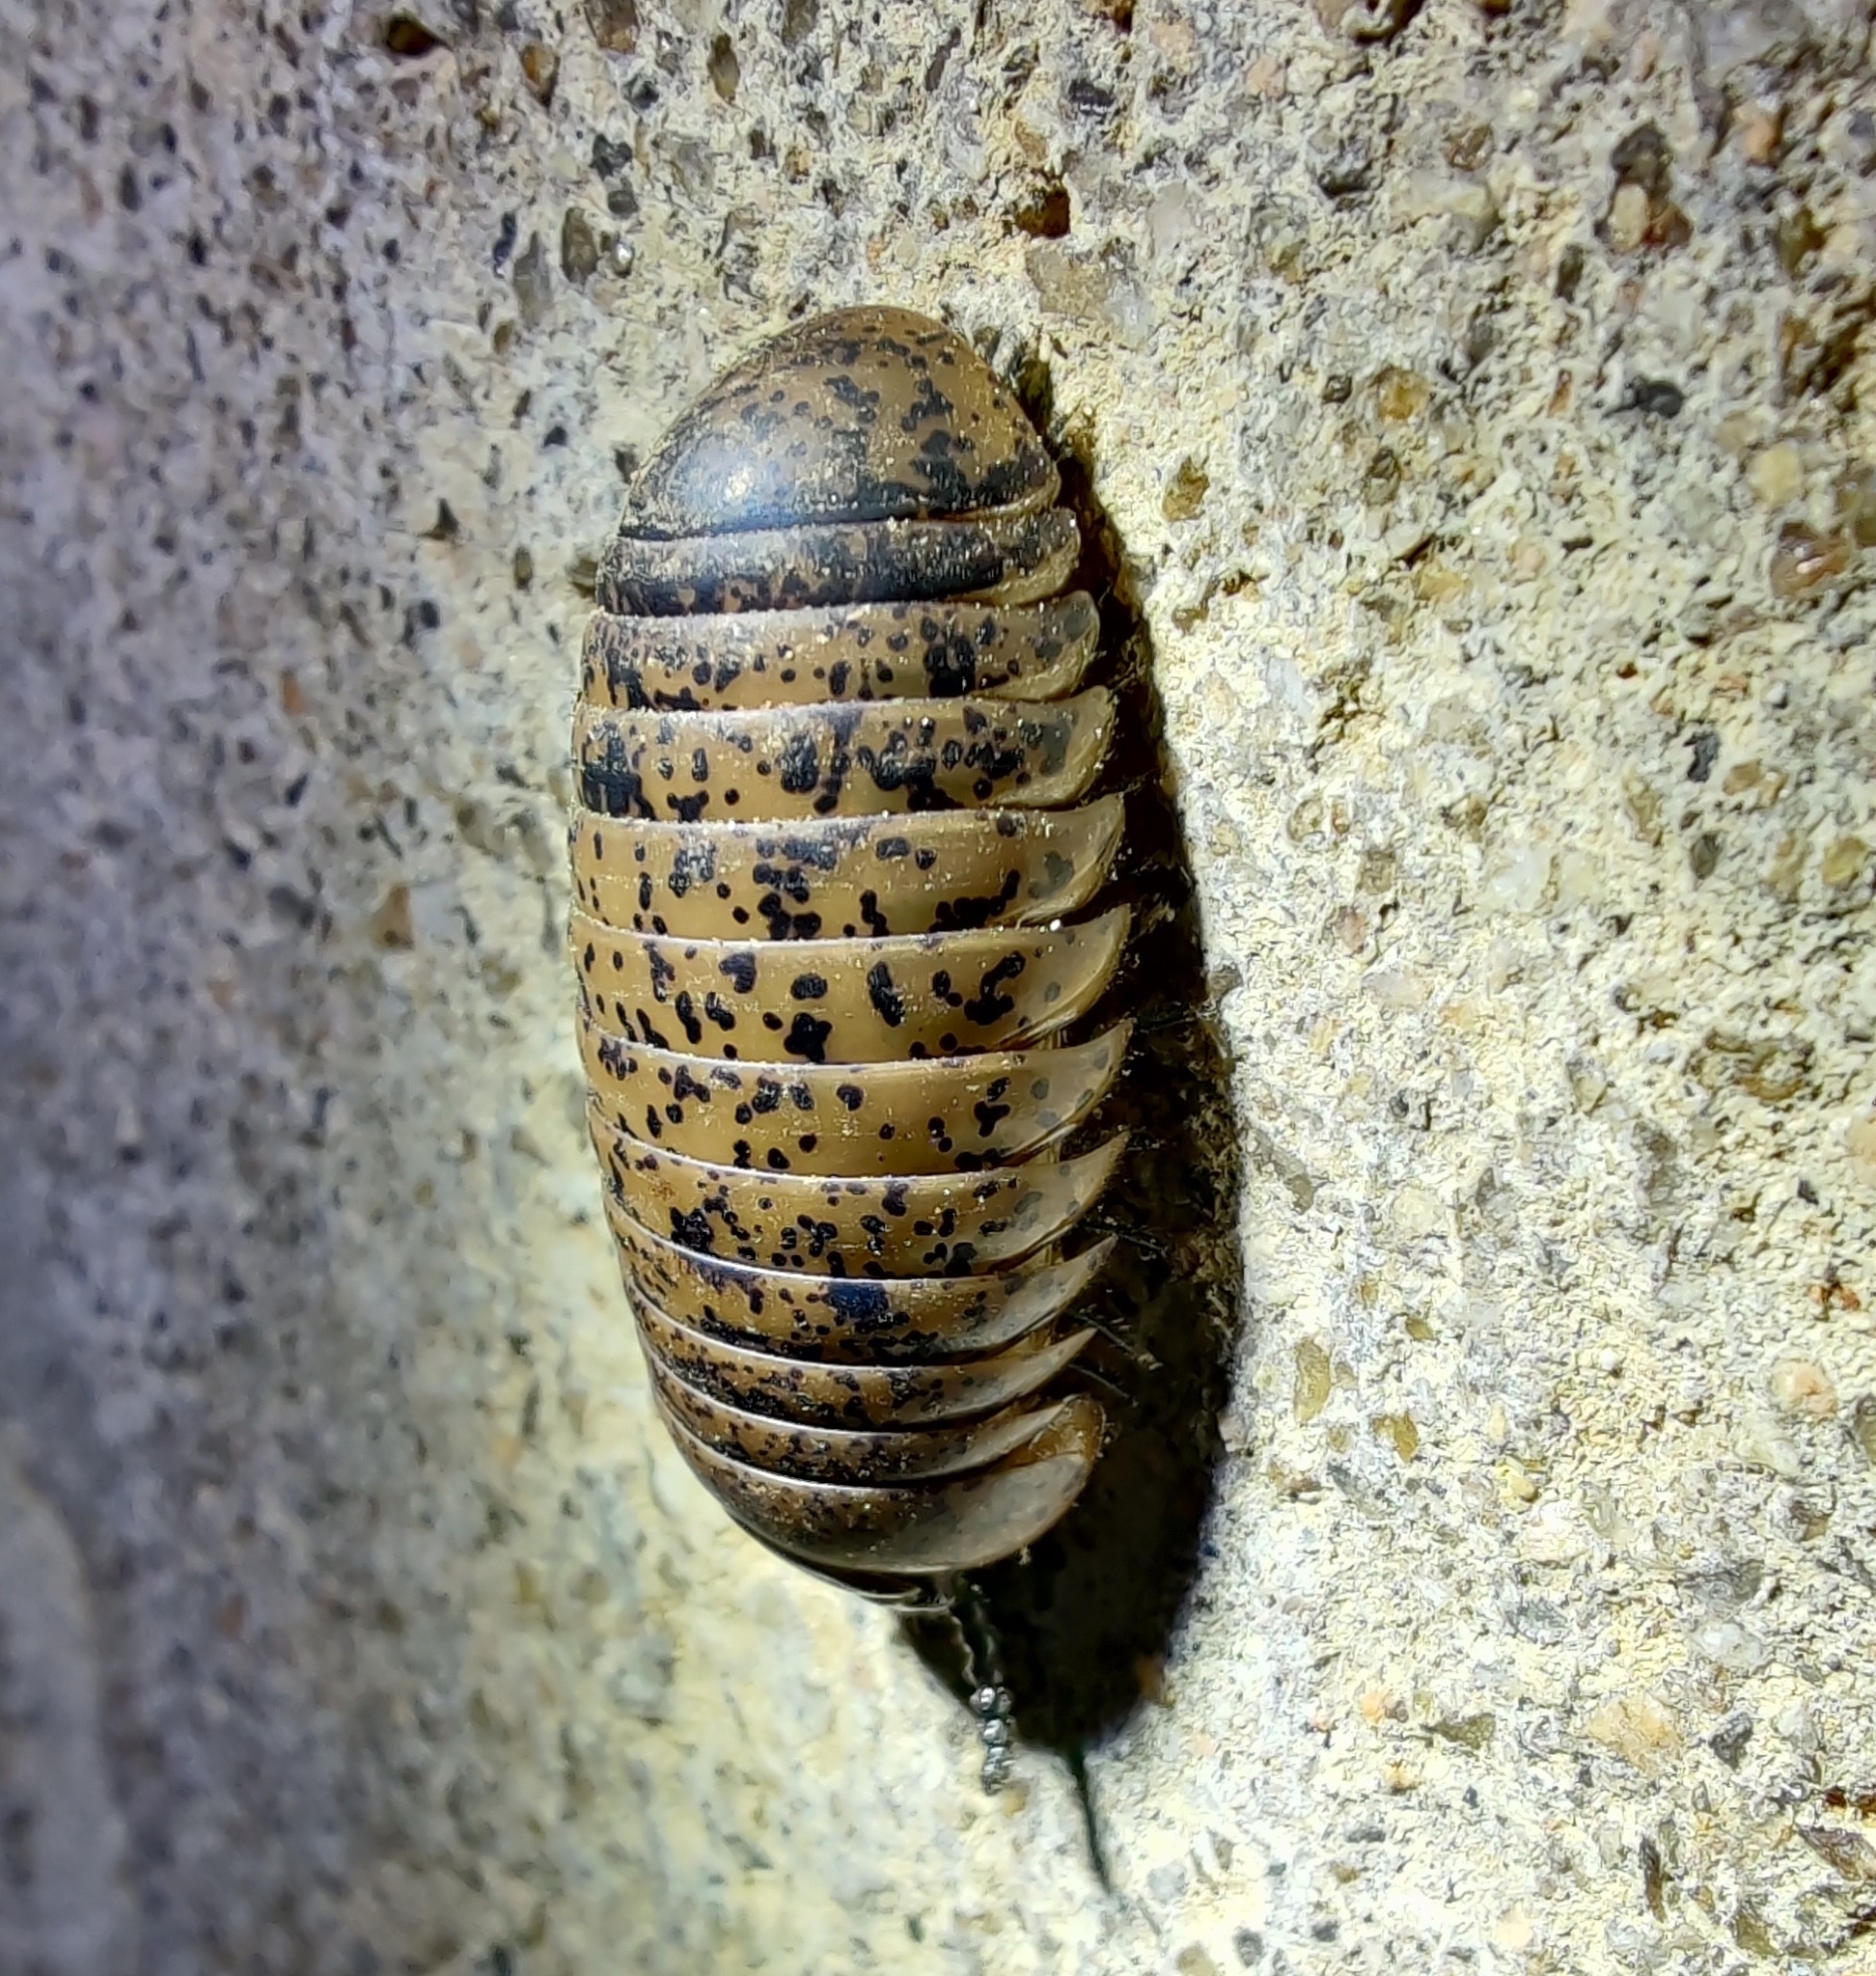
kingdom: Animalia
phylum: Arthropoda
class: Diplopoda
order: Sphaerotheriida
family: Arthrosphaeridae
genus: Arthrosphaera
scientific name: Arthrosphaera versicolor
